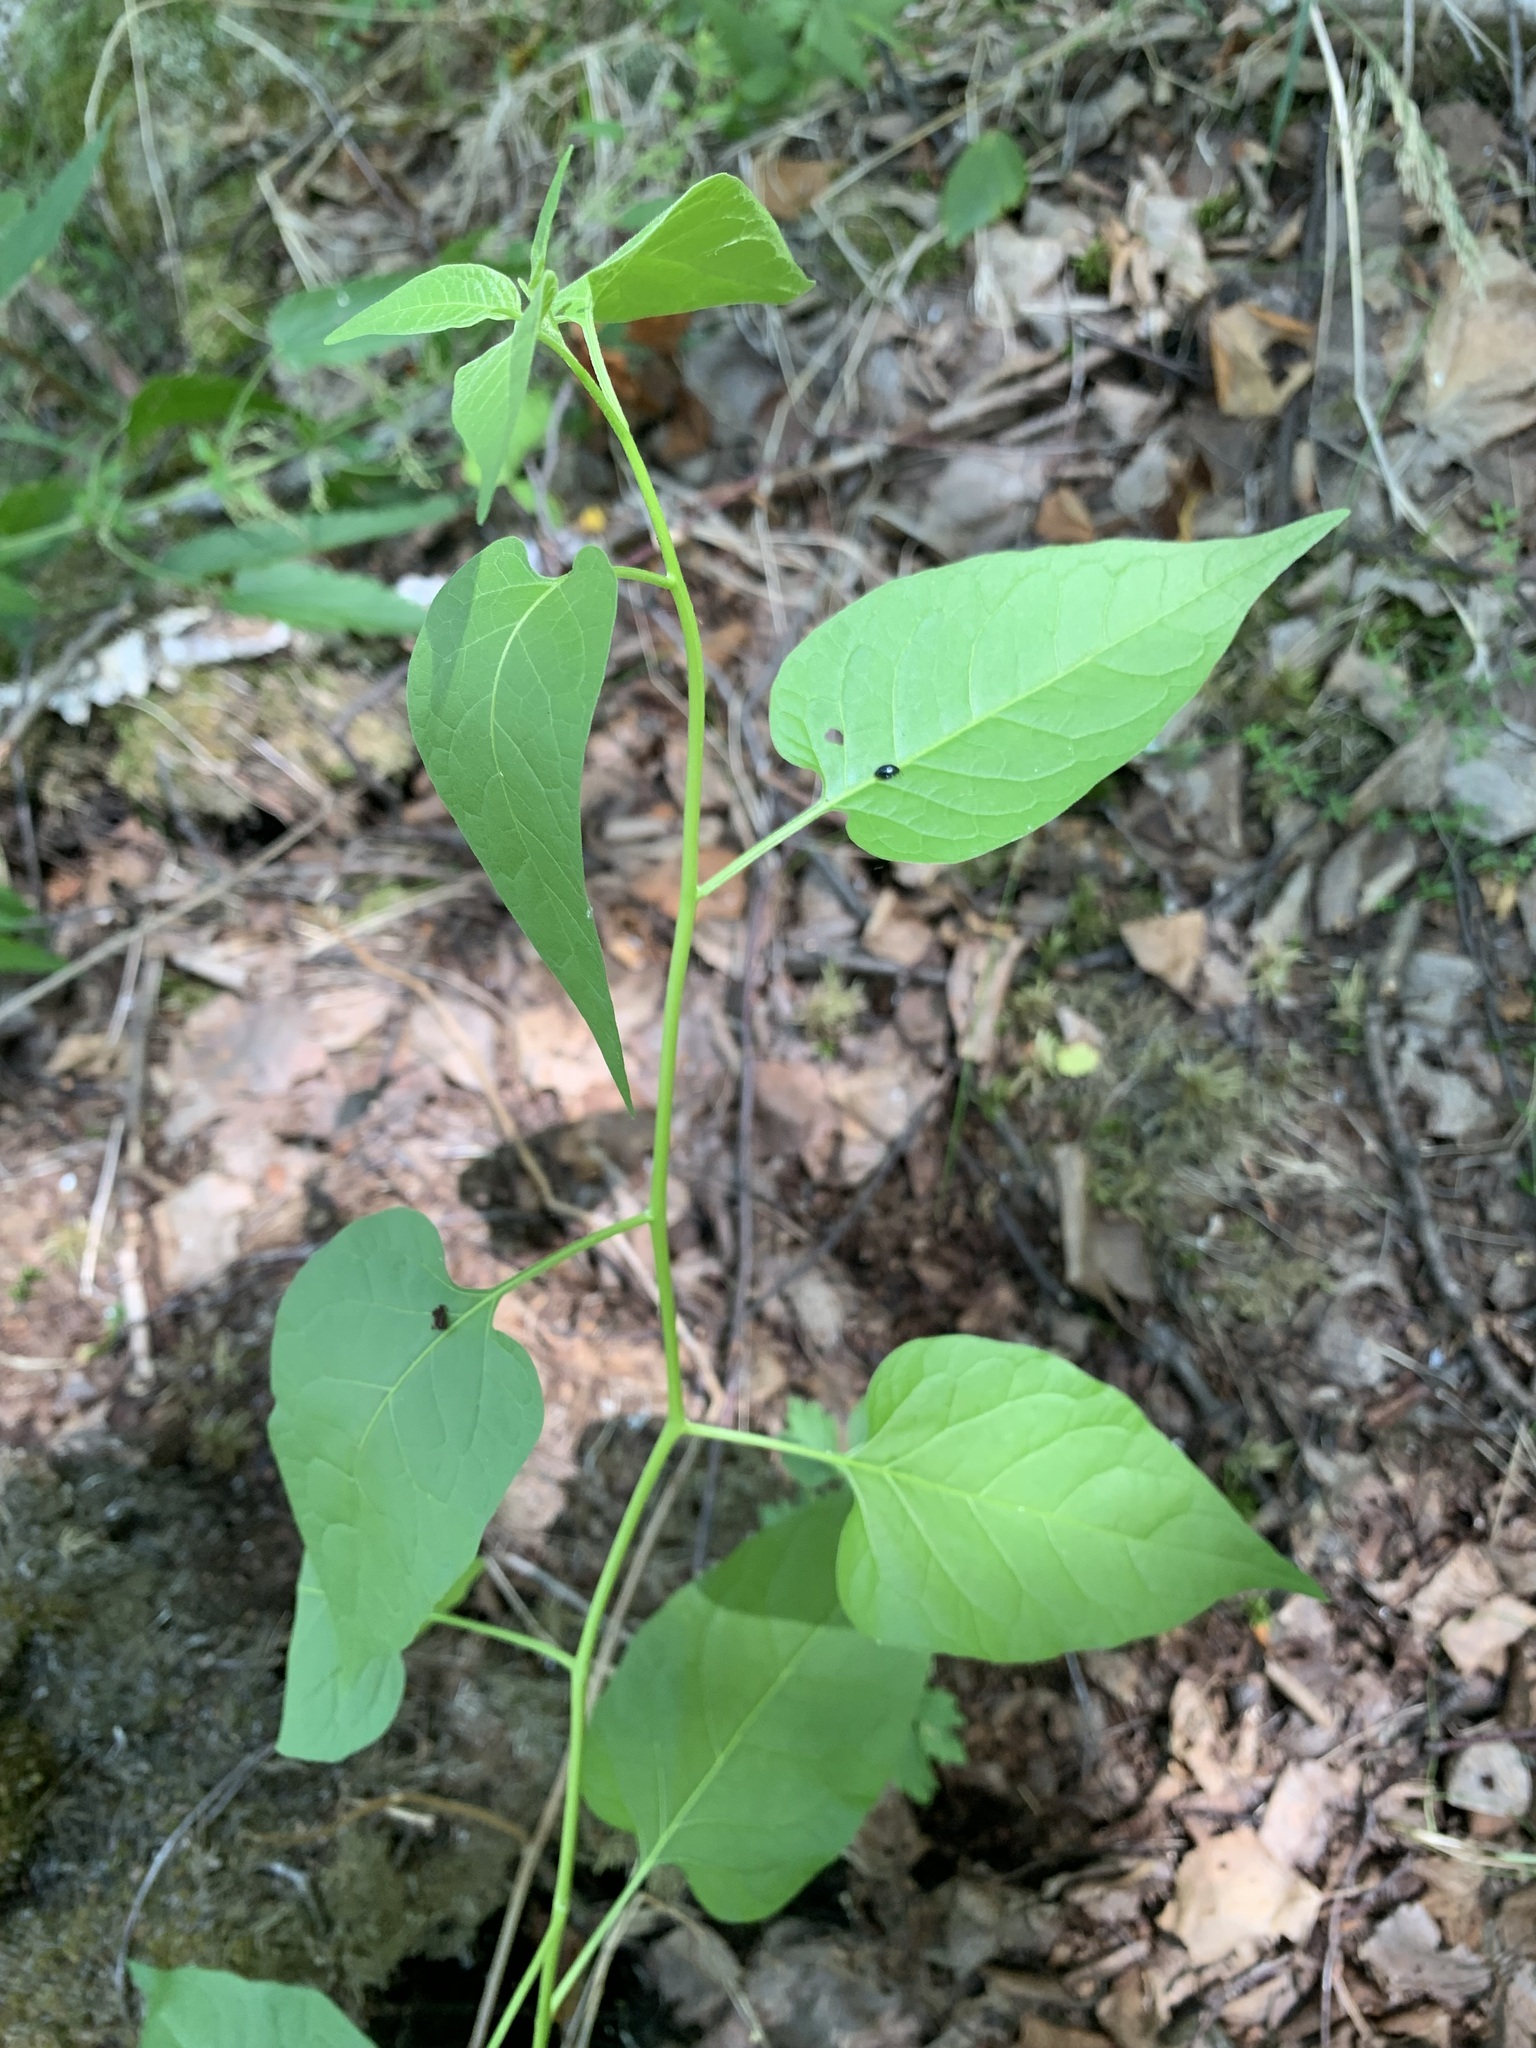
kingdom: Plantae
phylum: Tracheophyta
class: Magnoliopsida
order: Solanales
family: Solanaceae
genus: Solanum
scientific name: Solanum dulcamara
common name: Climbing nightshade
